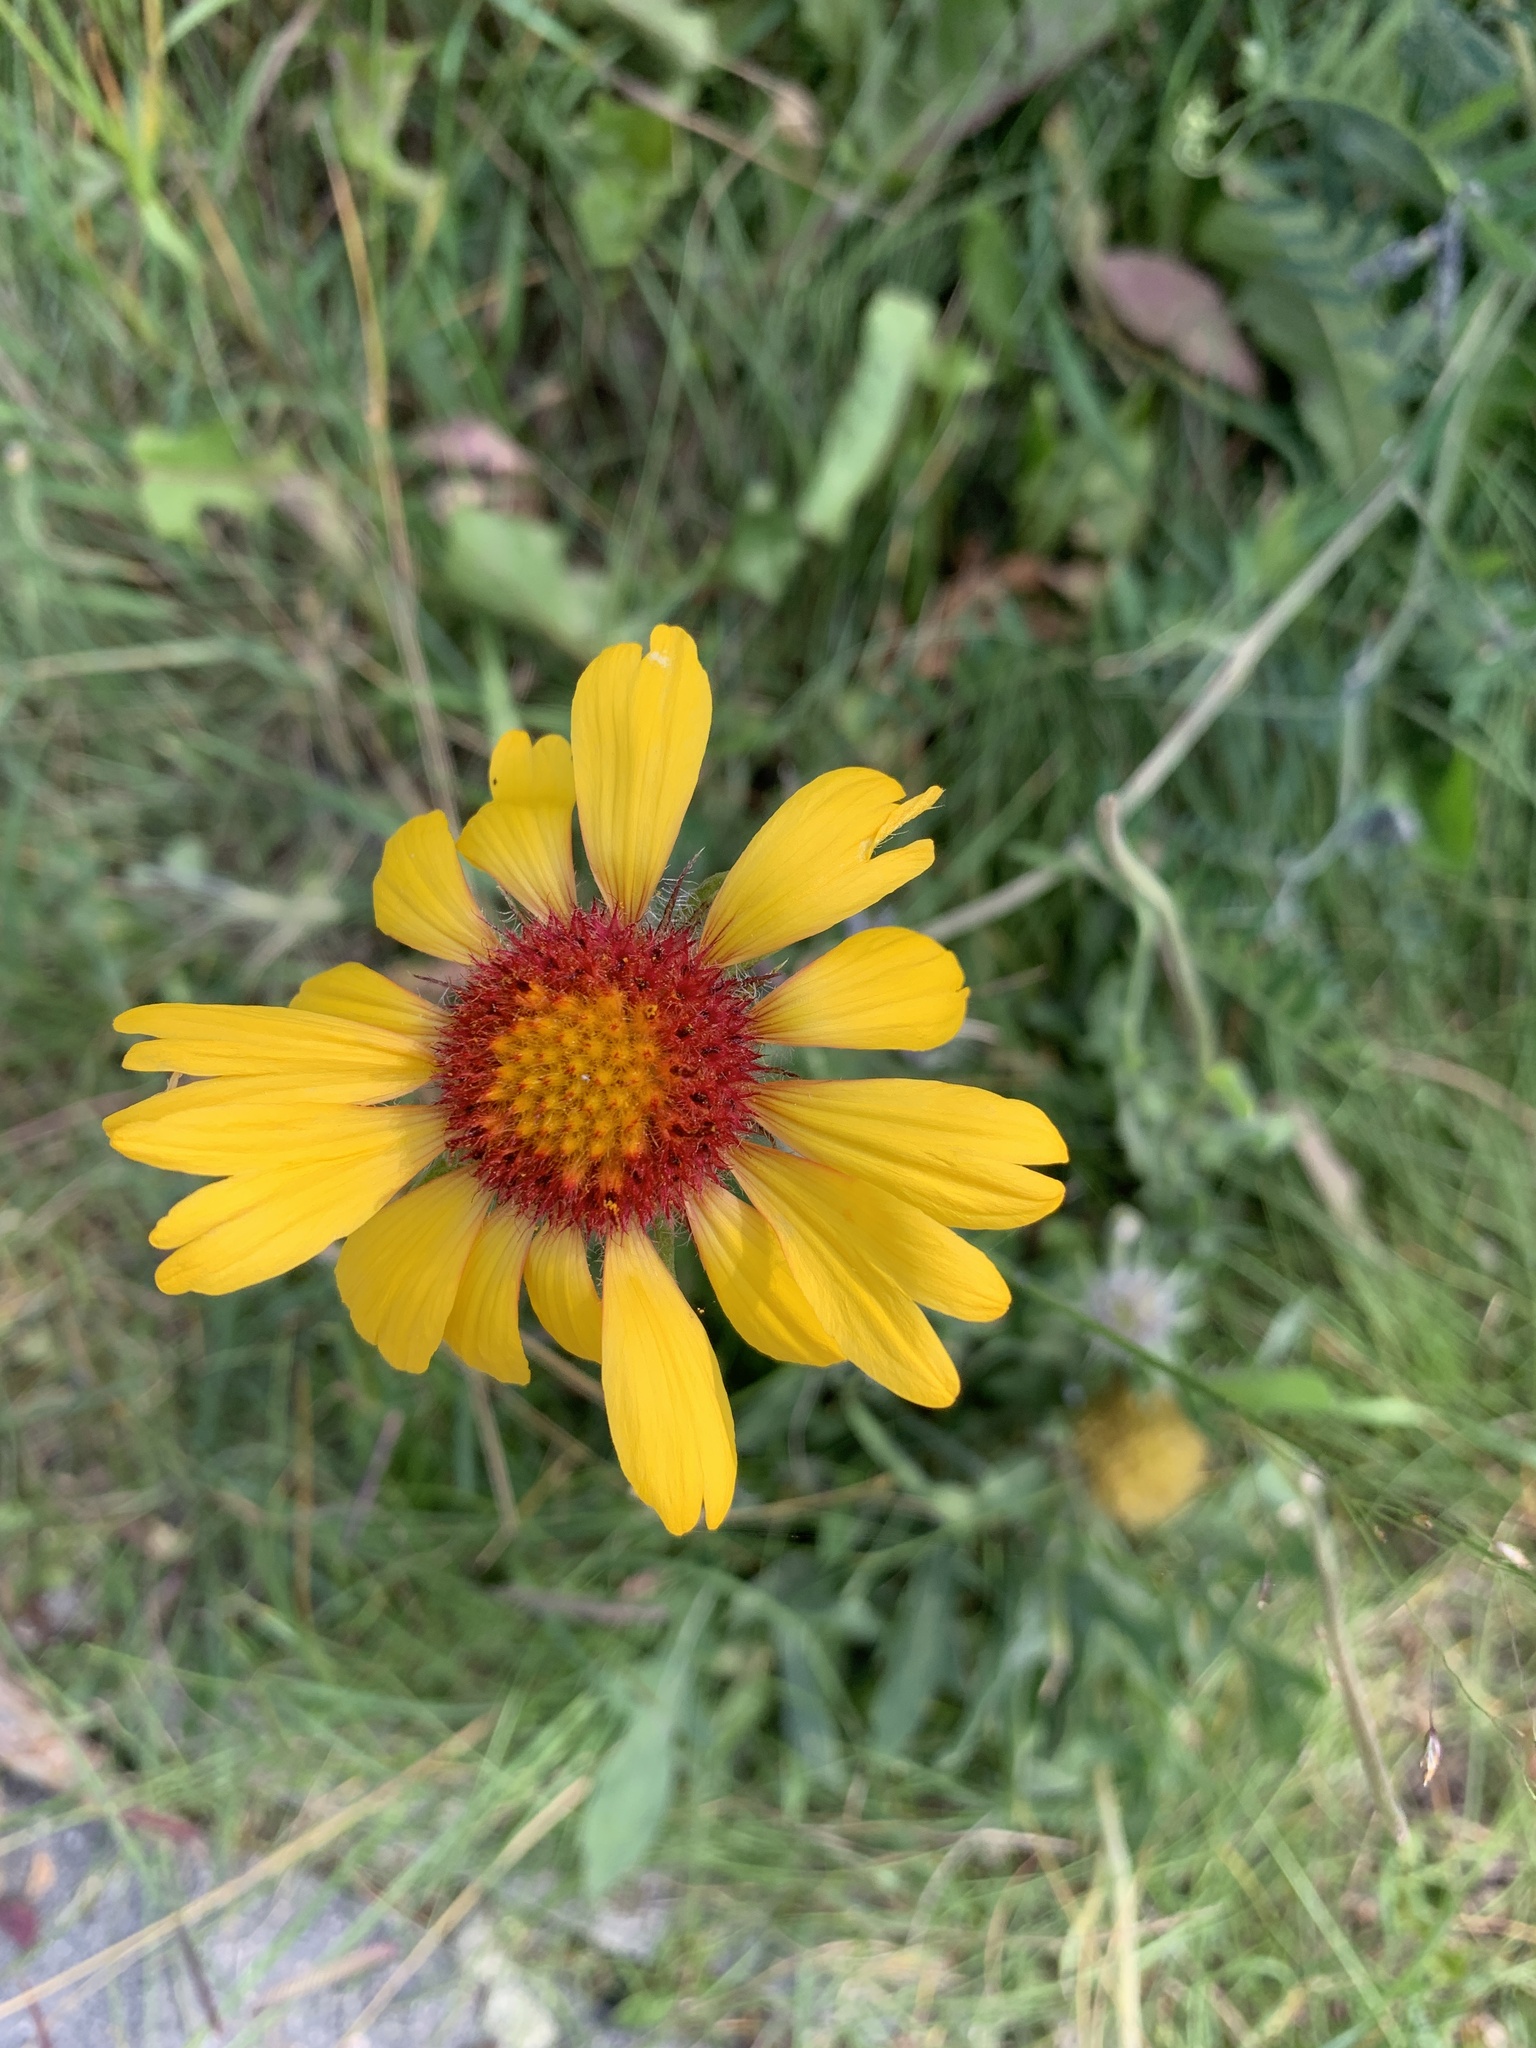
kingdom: Plantae
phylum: Tracheophyta
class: Magnoliopsida
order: Asterales
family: Asteraceae
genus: Gaillardia
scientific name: Gaillardia aristata
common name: Blanket-flower
